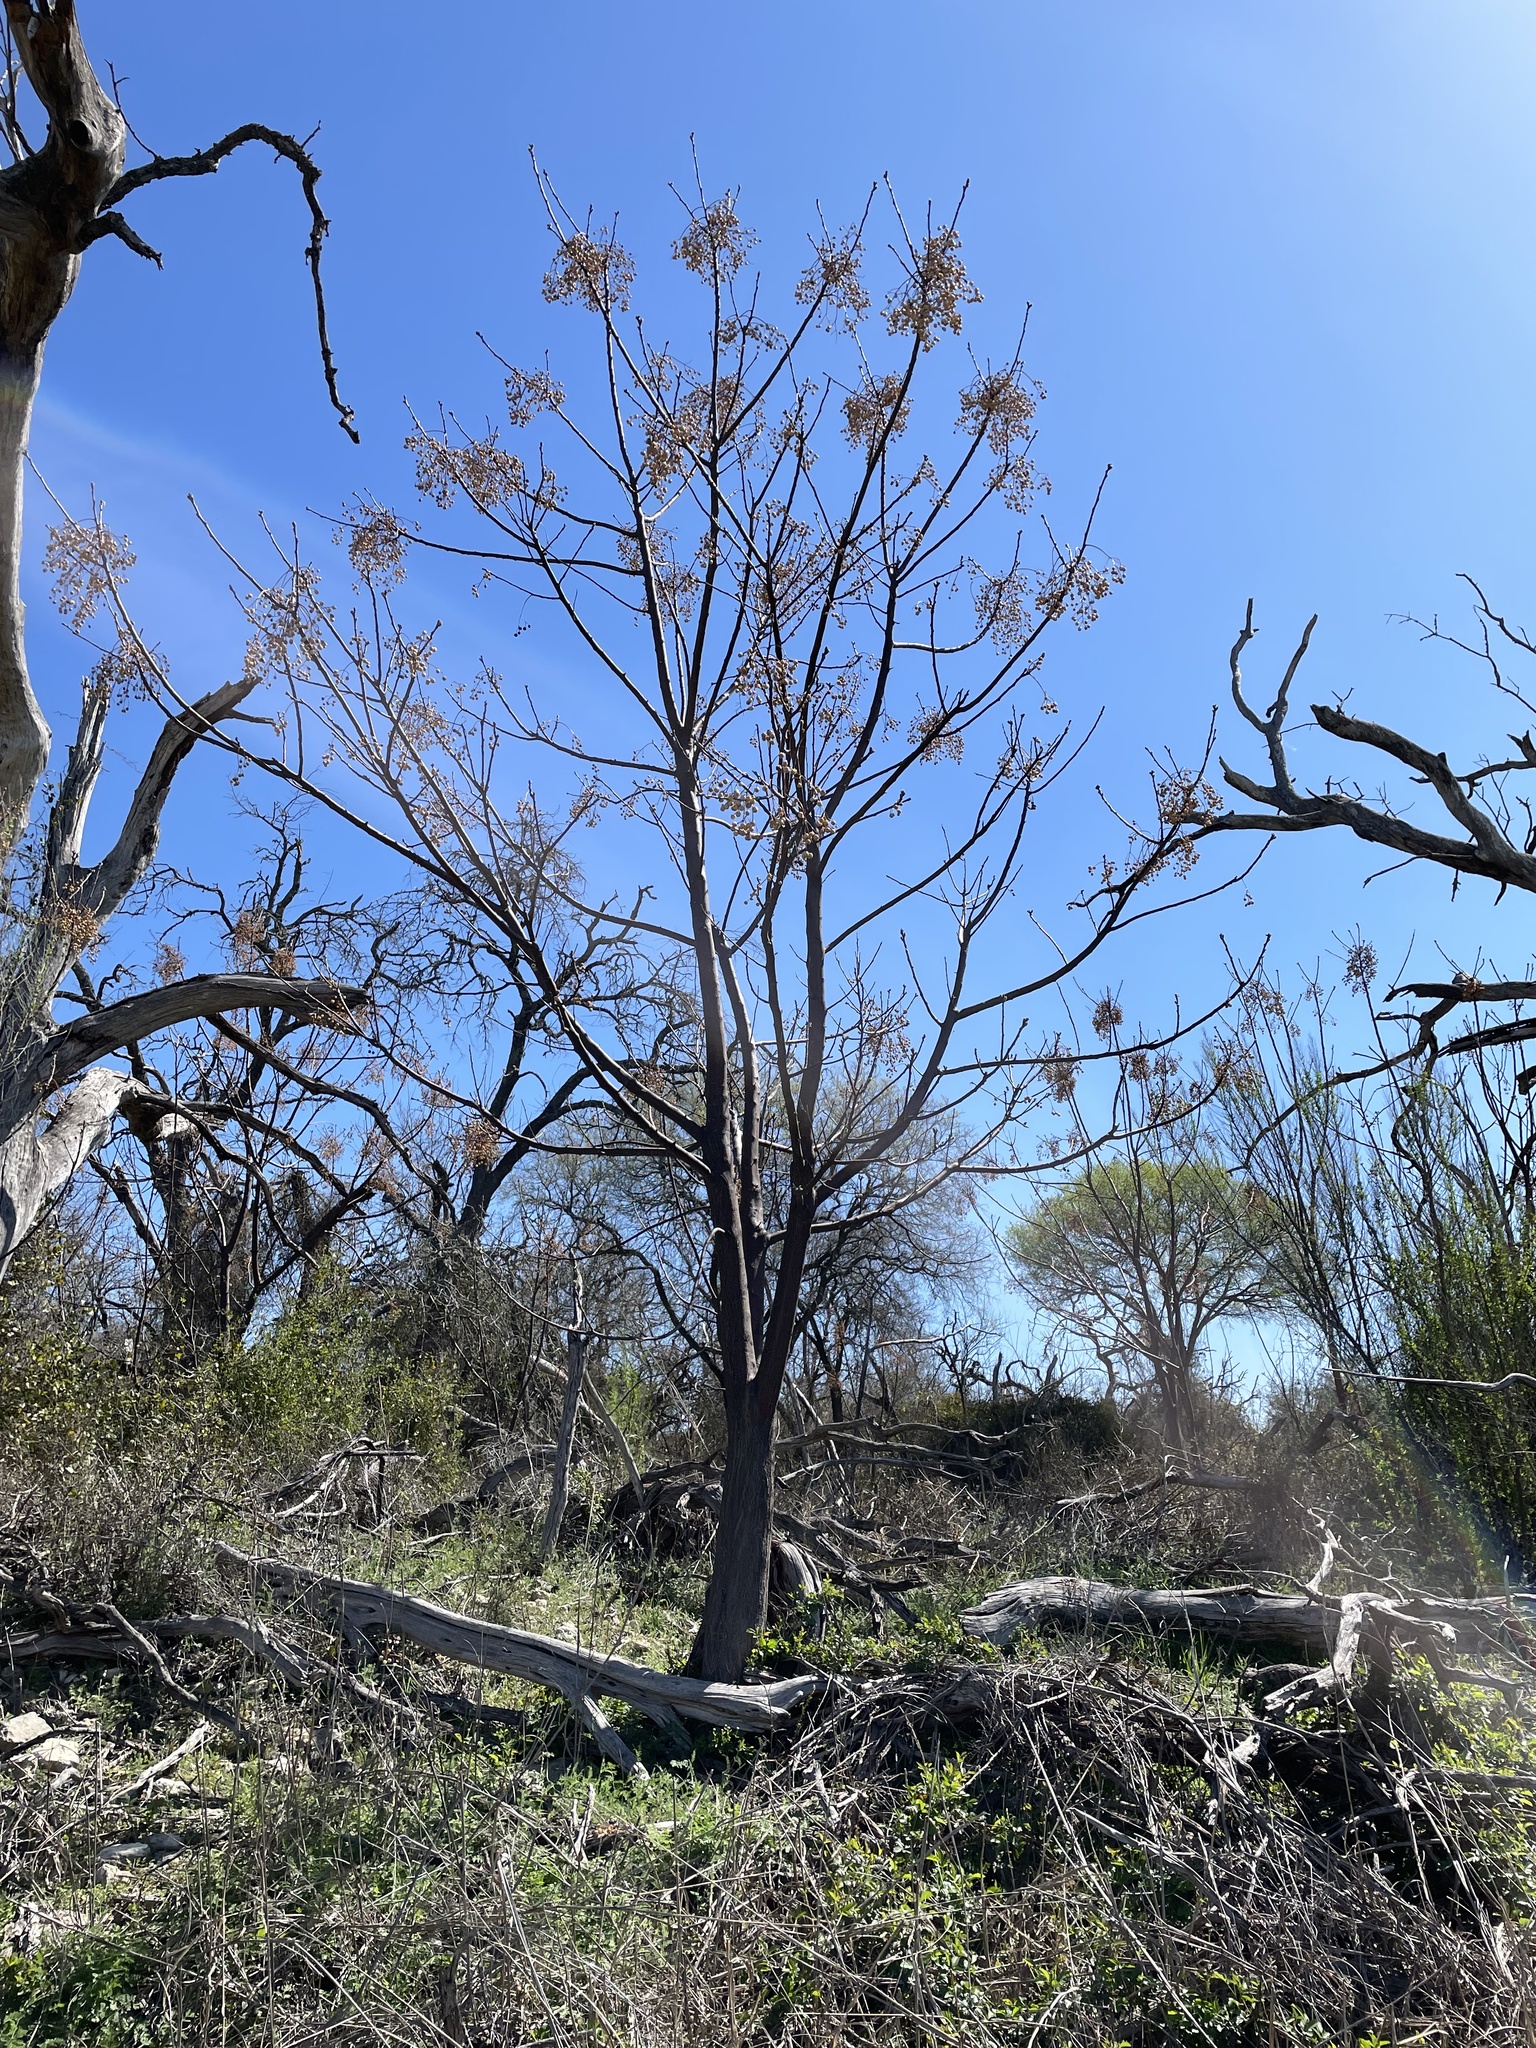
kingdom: Plantae
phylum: Tracheophyta
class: Magnoliopsida
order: Sapindales
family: Meliaceae
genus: Melia
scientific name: Melia azedarach
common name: Chinaberrytree
